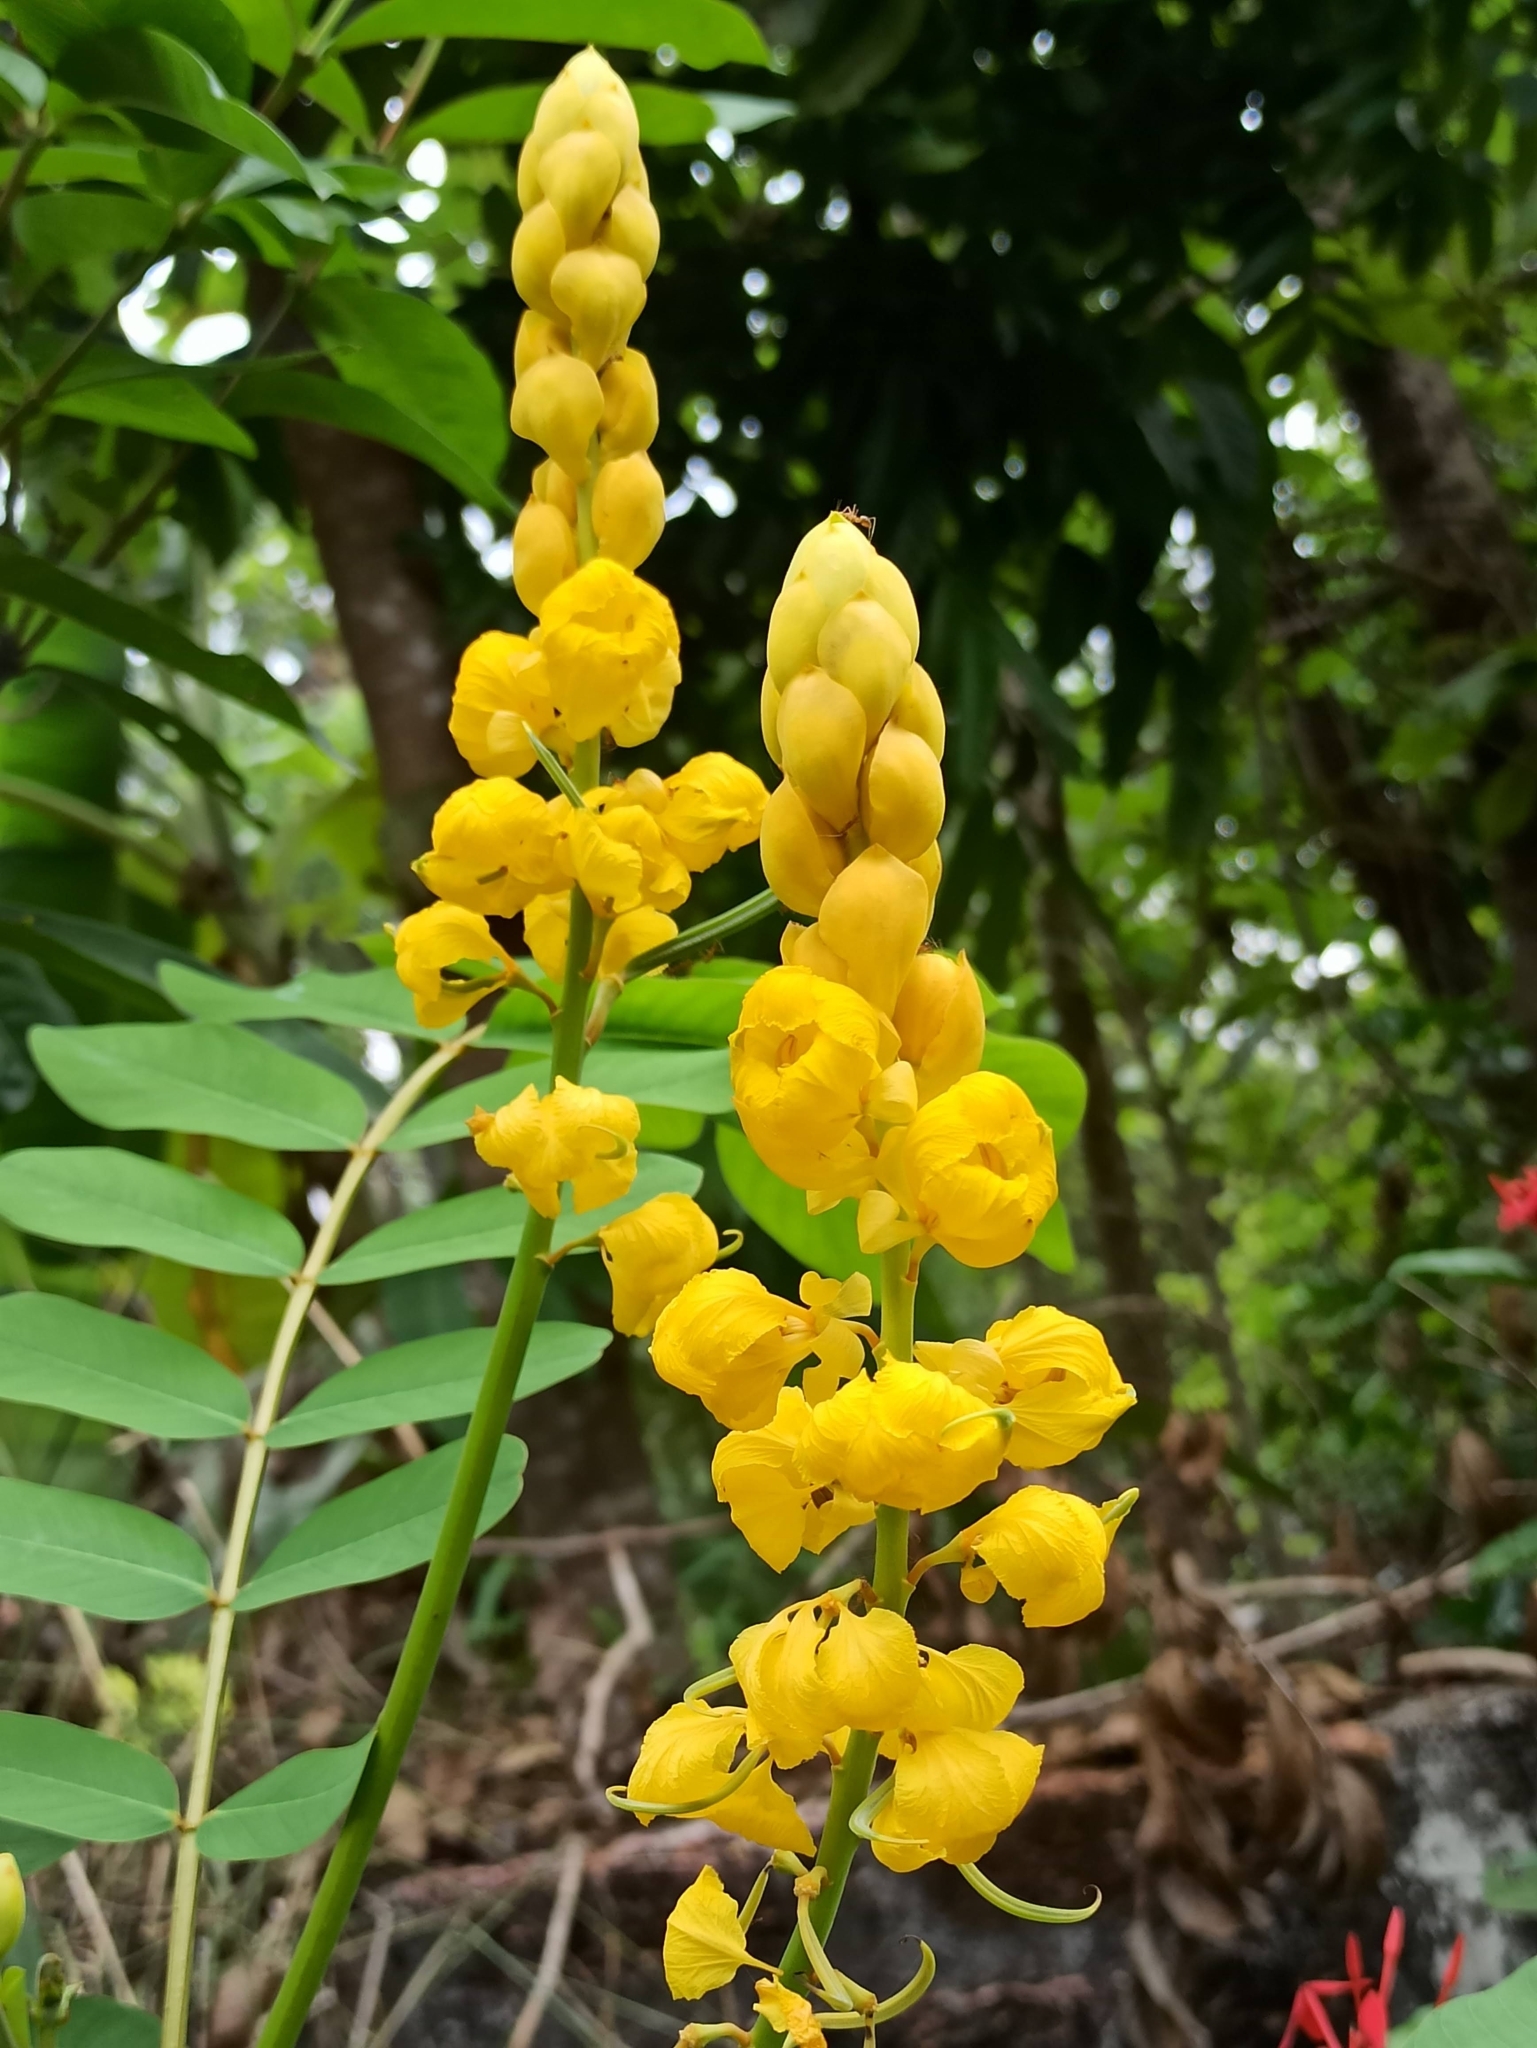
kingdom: Plantae
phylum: Tracheophyta
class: Magnoliopsida
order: Fabales
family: Fabaceae
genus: Senna
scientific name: Senna alata
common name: Emperor's candlesticks
